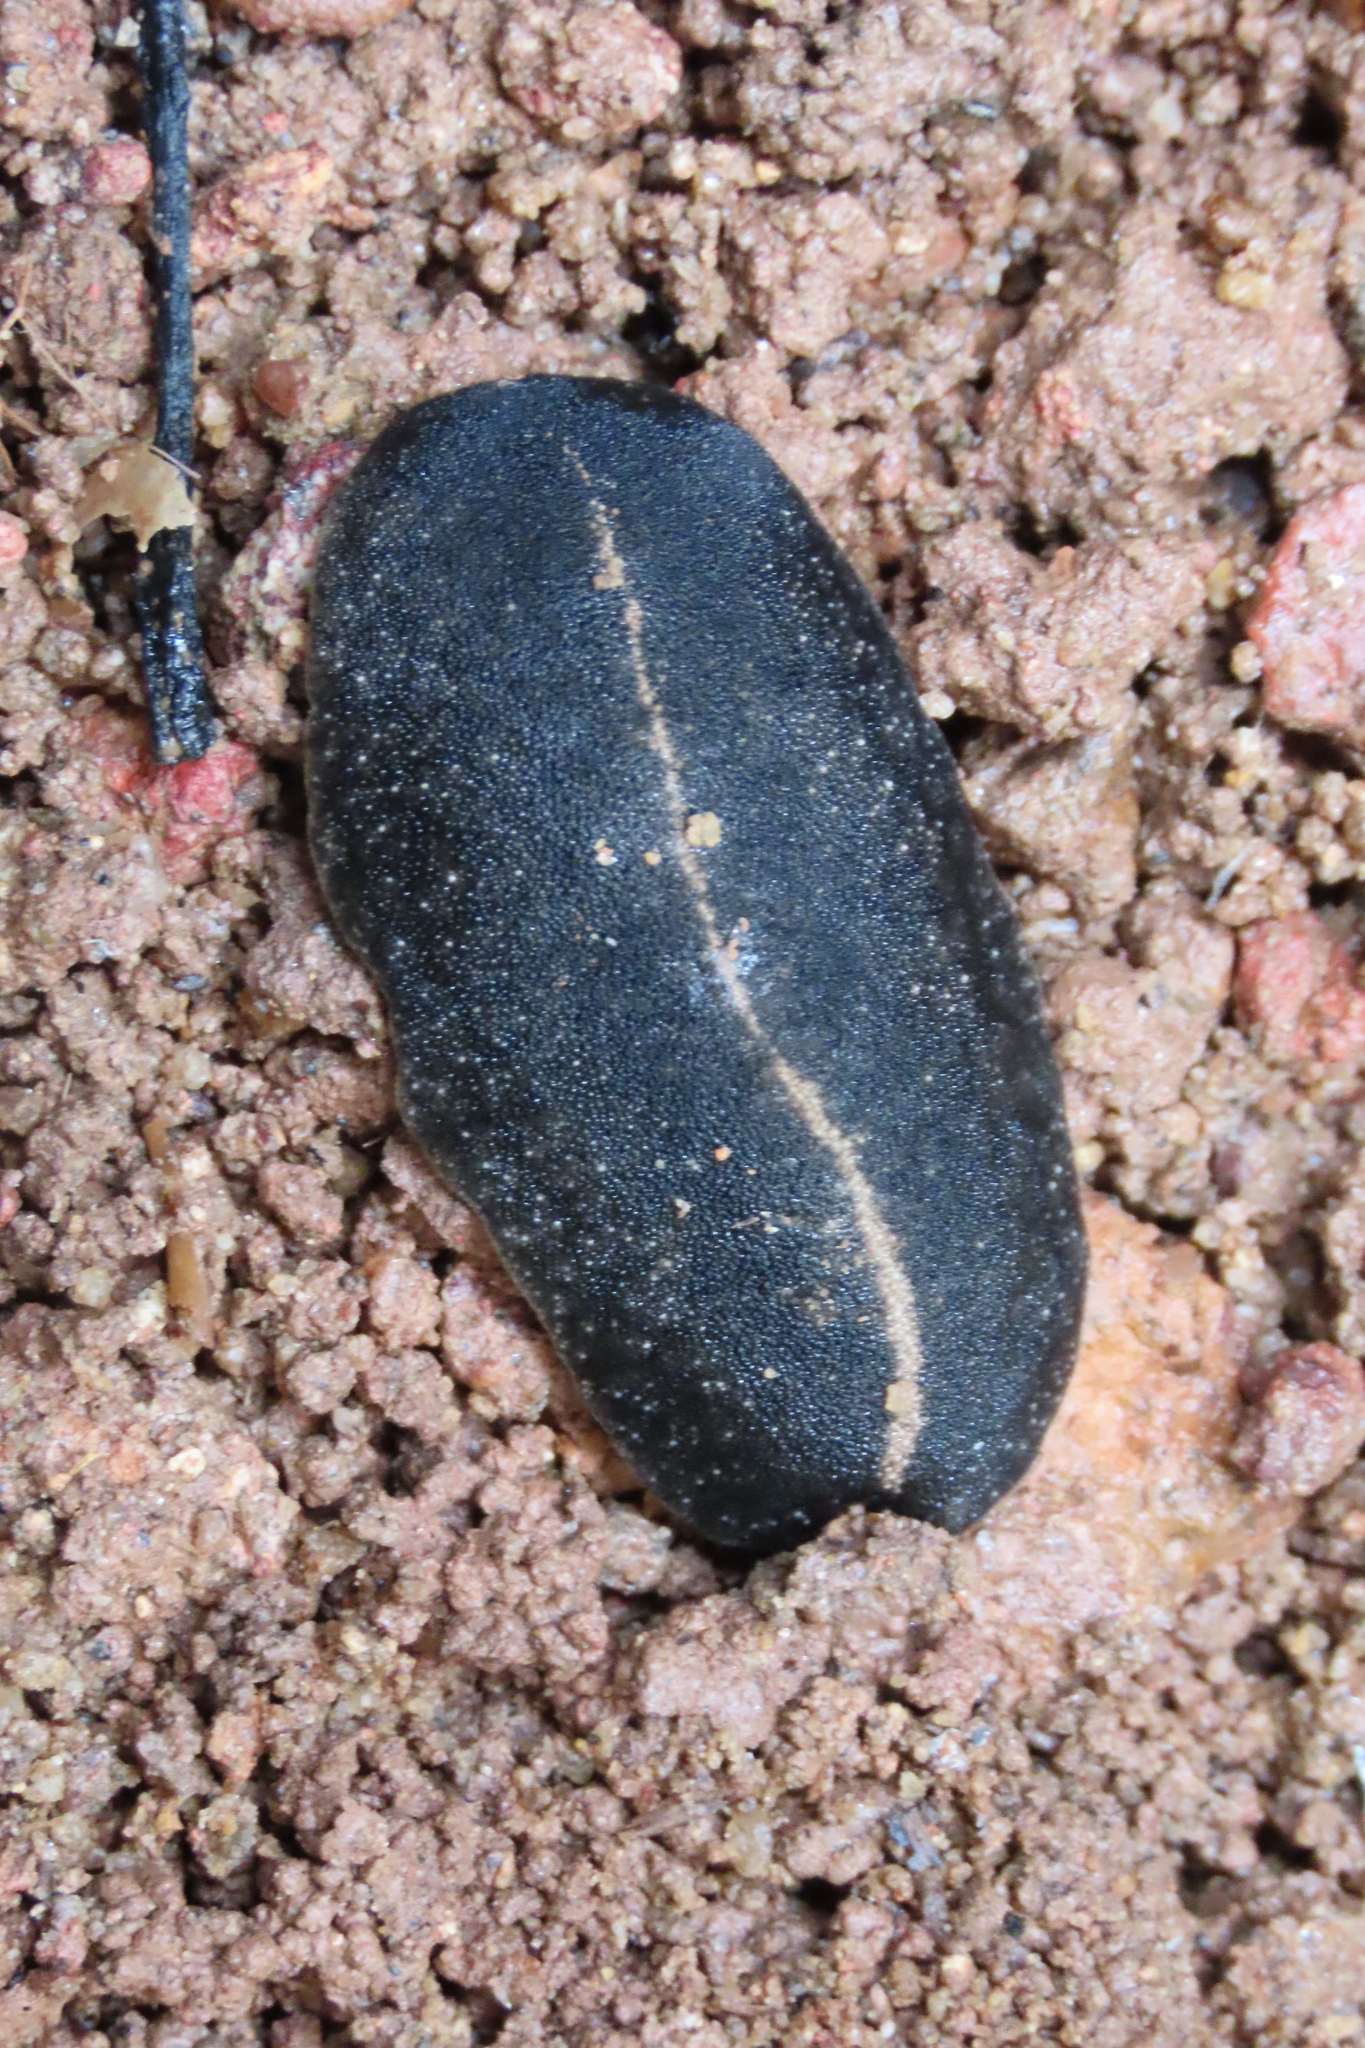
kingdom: Animalia
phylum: Mollusca
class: Gastropoda
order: Systellommatophora
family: Veronicellidae
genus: Laevicaulis
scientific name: Laevicaulis alte
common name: Tropical leatherleaf
